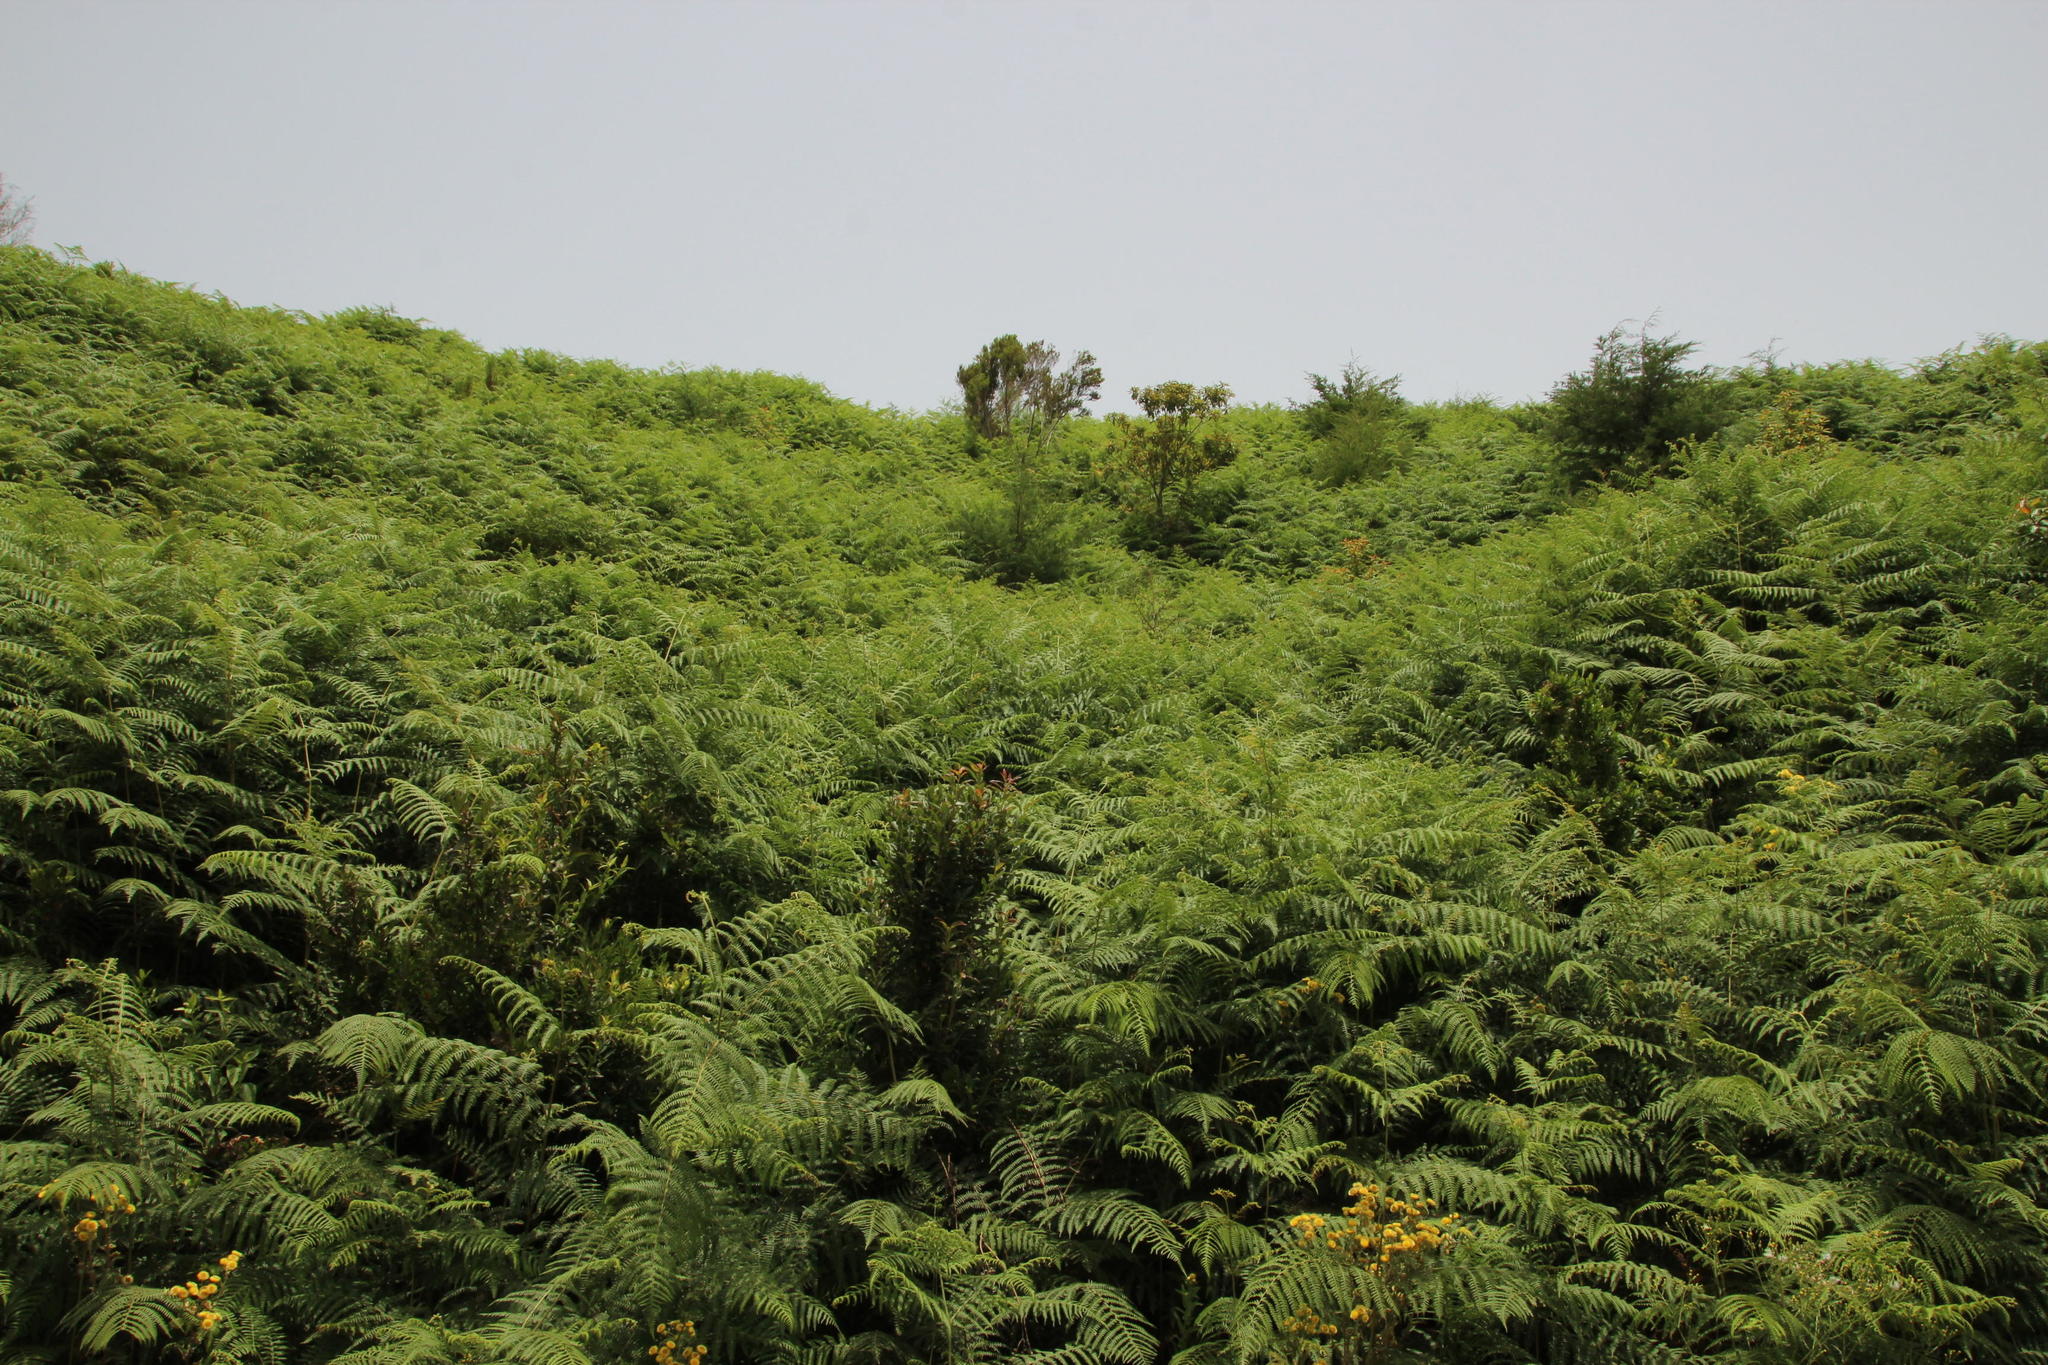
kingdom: Plantae
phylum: Tracheophyta
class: Polypodiopsida
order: Polypodiales
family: Dennstaedtiaceae
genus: Pteridium
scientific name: Pteridium aquilinum
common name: Bracken
